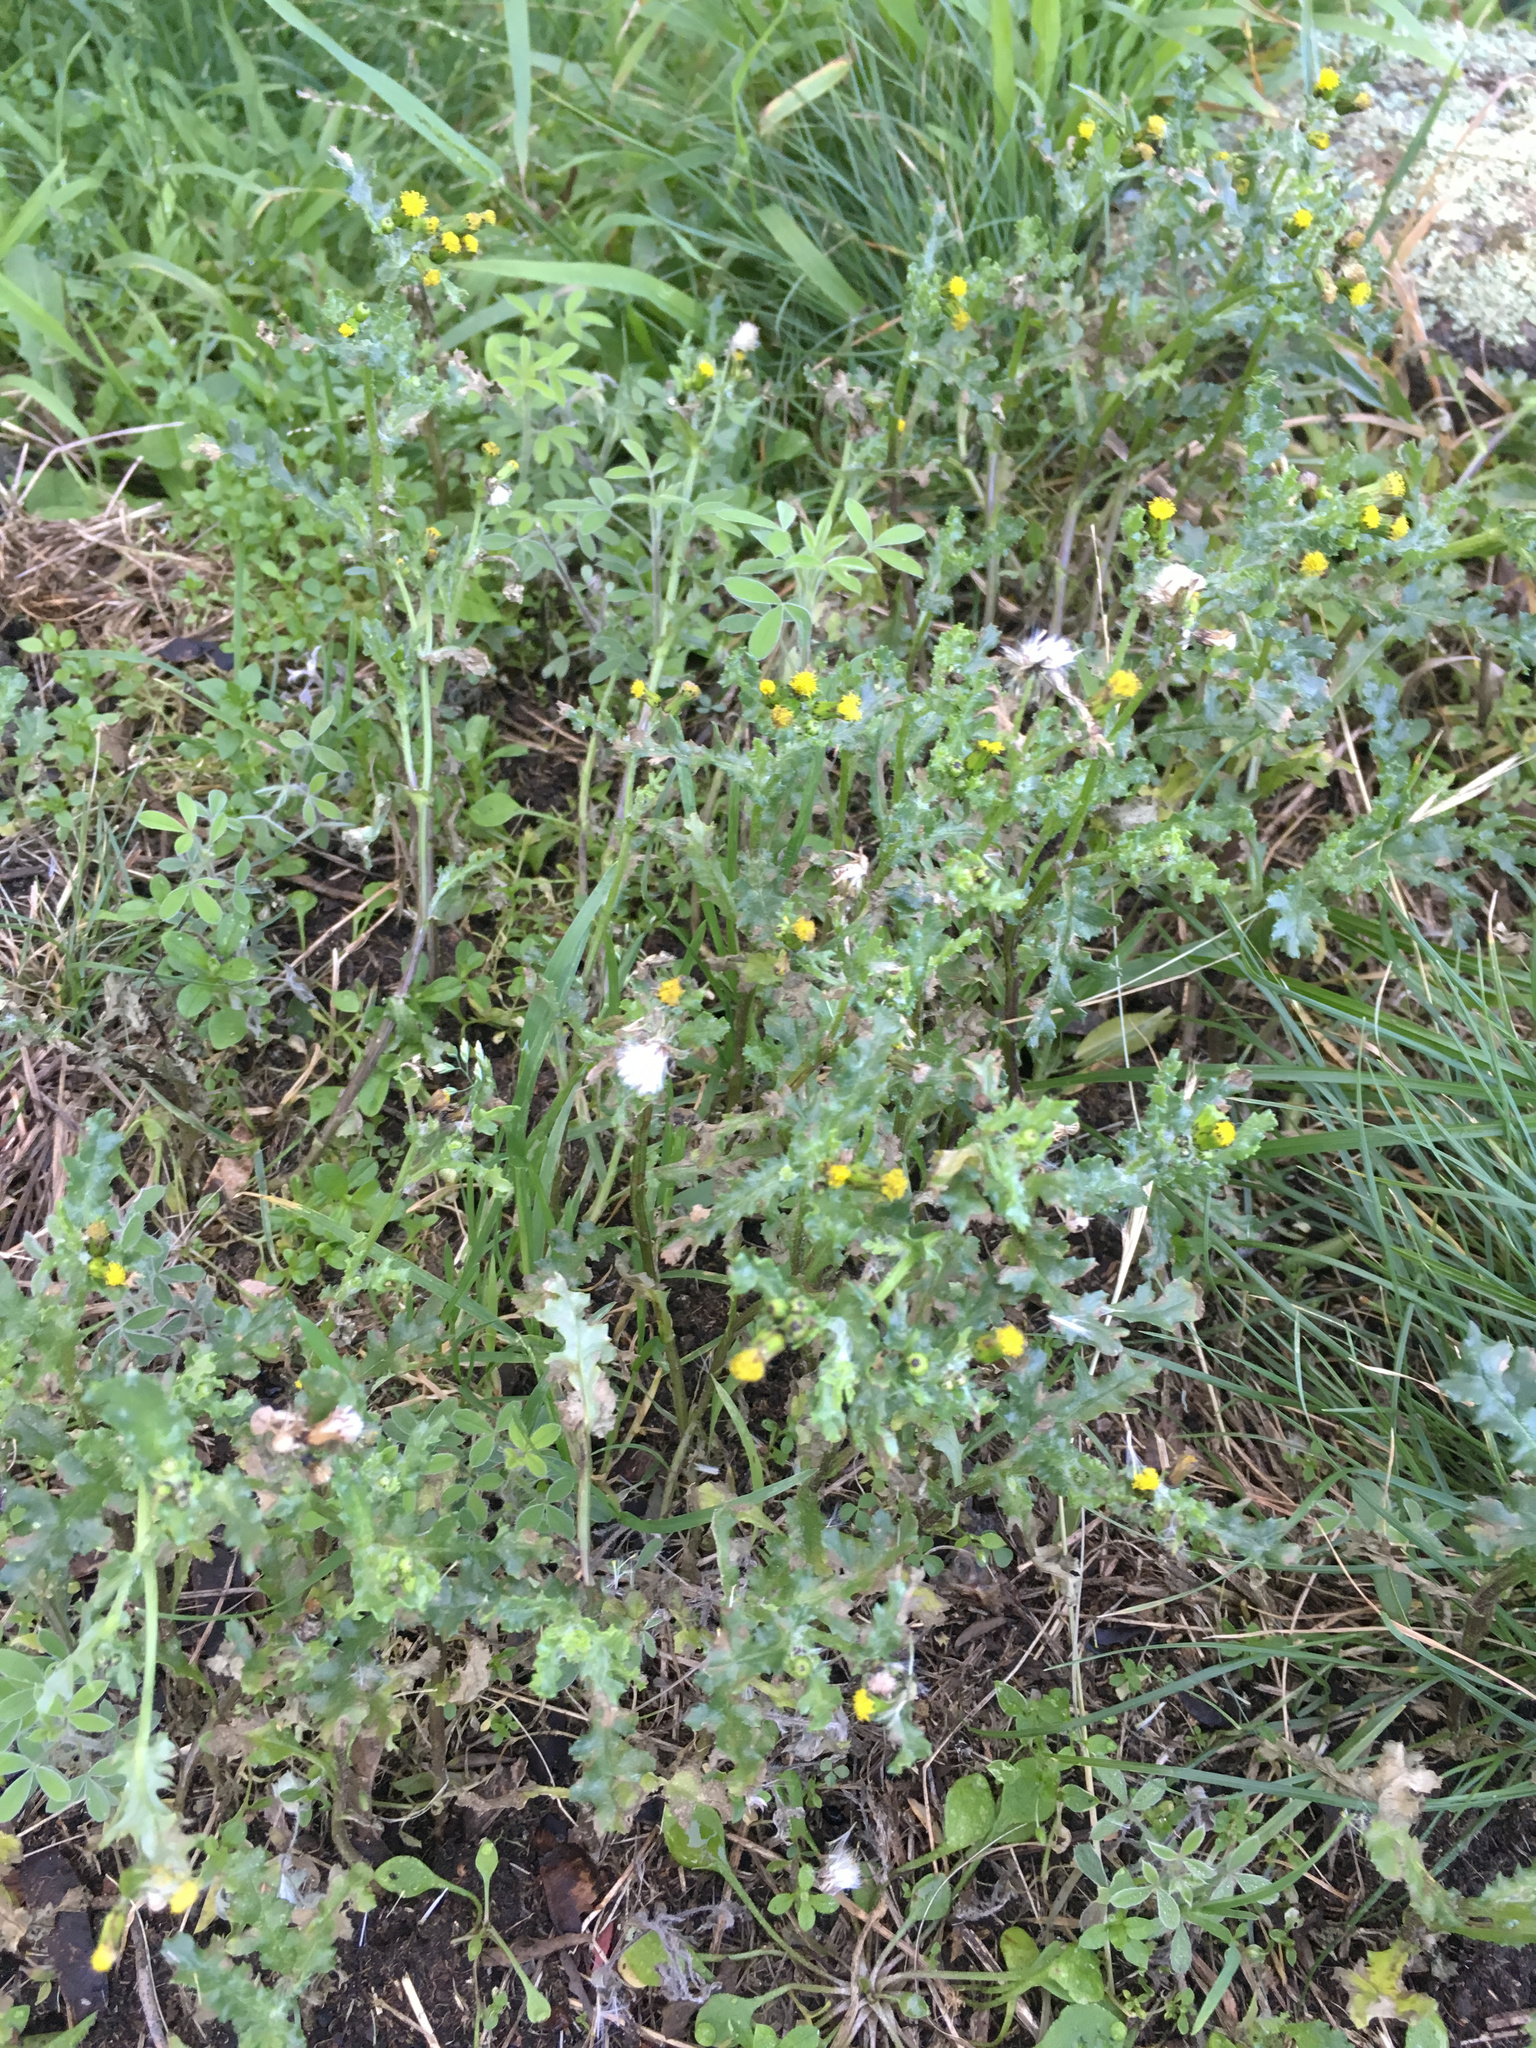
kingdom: Plantae
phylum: Tracheophyta
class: Magnoliopsida
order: Asterales
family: Asteraceae
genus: Senecio
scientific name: Senecio vulgaris
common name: Old-man-in-the-spring
